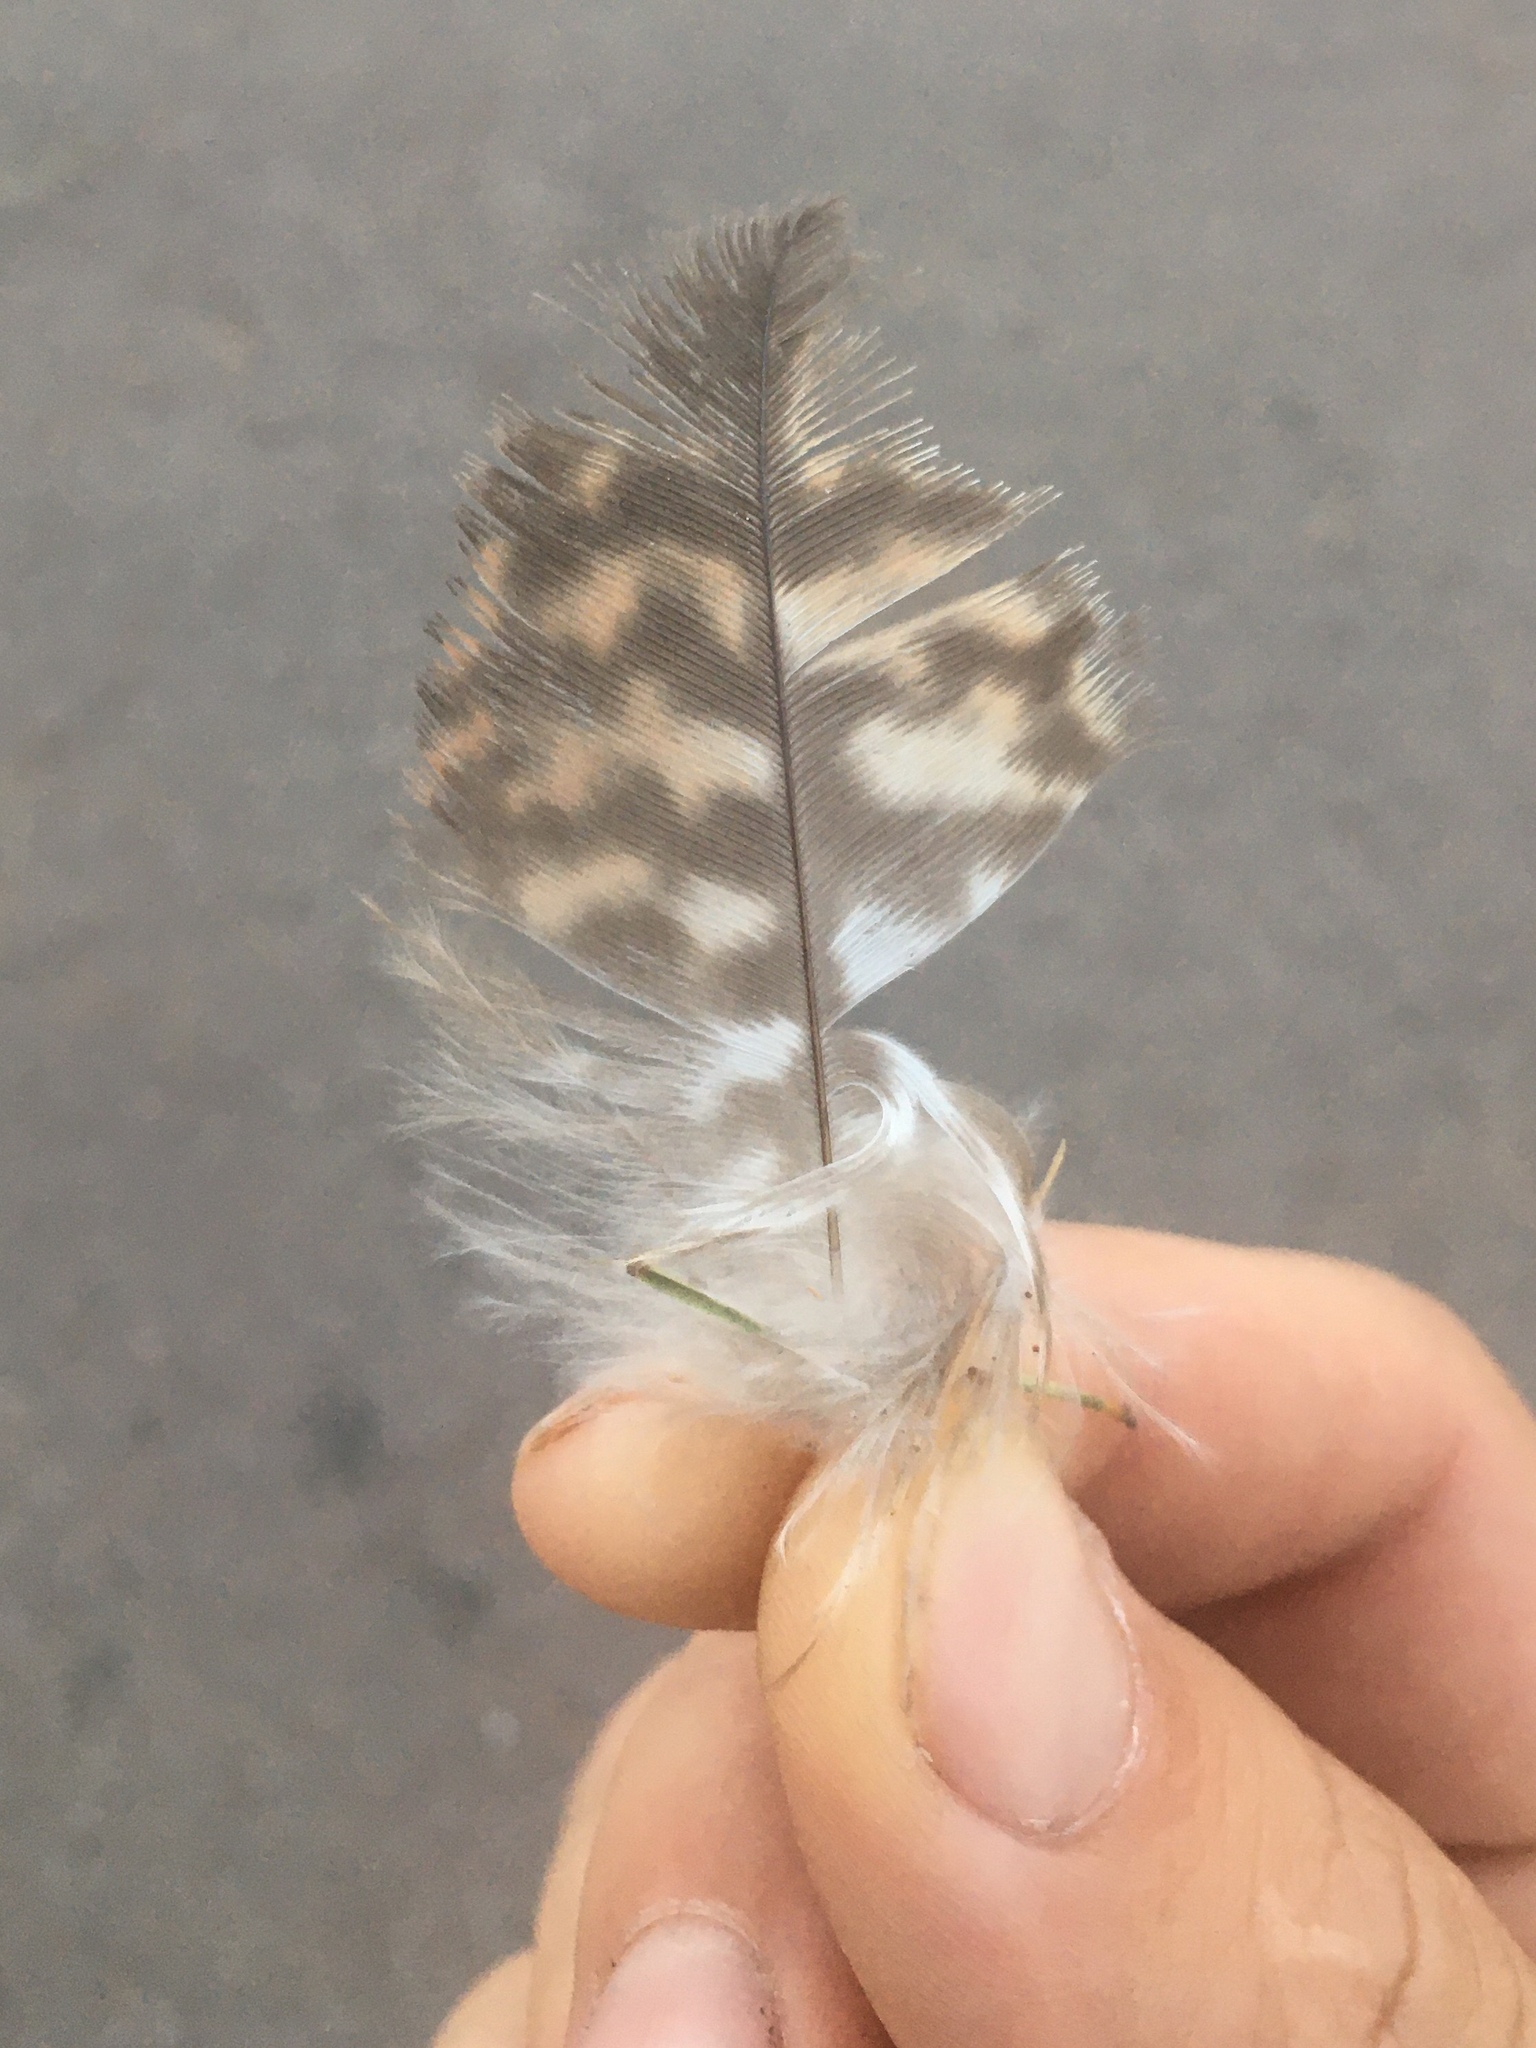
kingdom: Animalia
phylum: Chordata
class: Aves
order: Accipitriformes
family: Accipitridae
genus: Parabuteo
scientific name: Parabuteo unicinctus
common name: Harris's hawk
